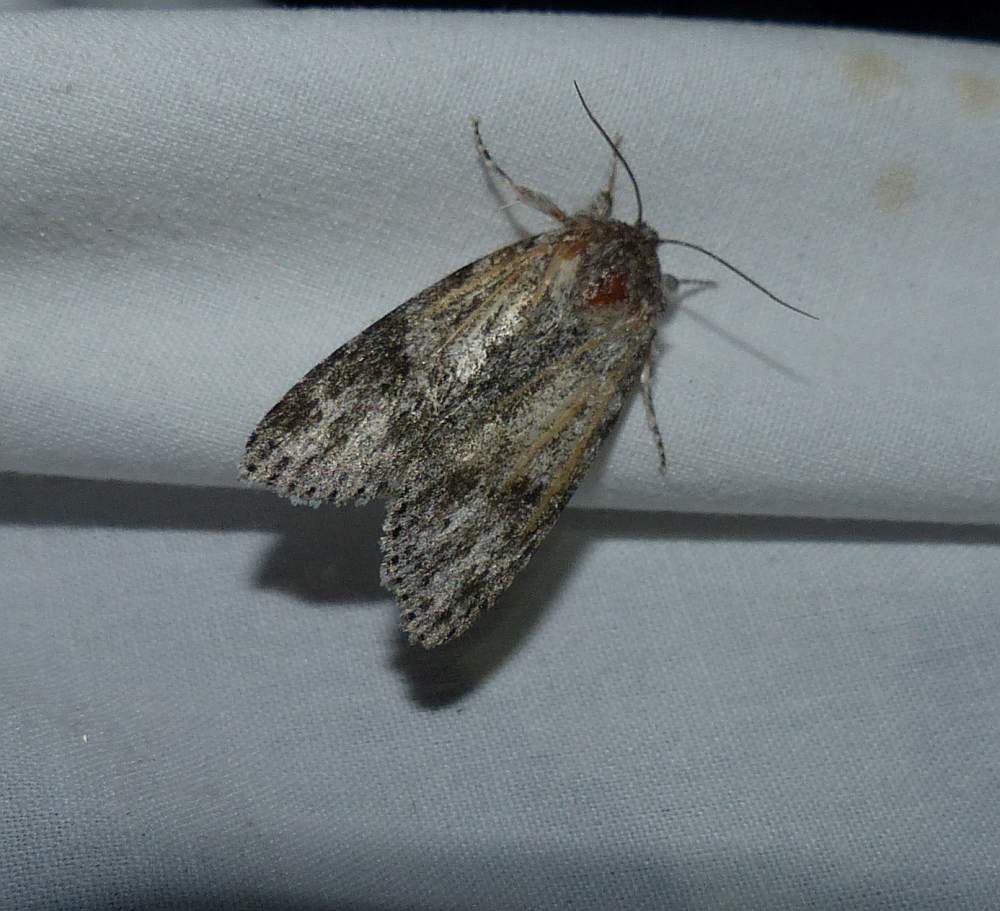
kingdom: Animalia
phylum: Arthropoda
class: Insecta
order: Lepidoptera
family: Noctuidae
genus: Acronicta
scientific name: Acronicta oblinita
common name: Smeared dagger
